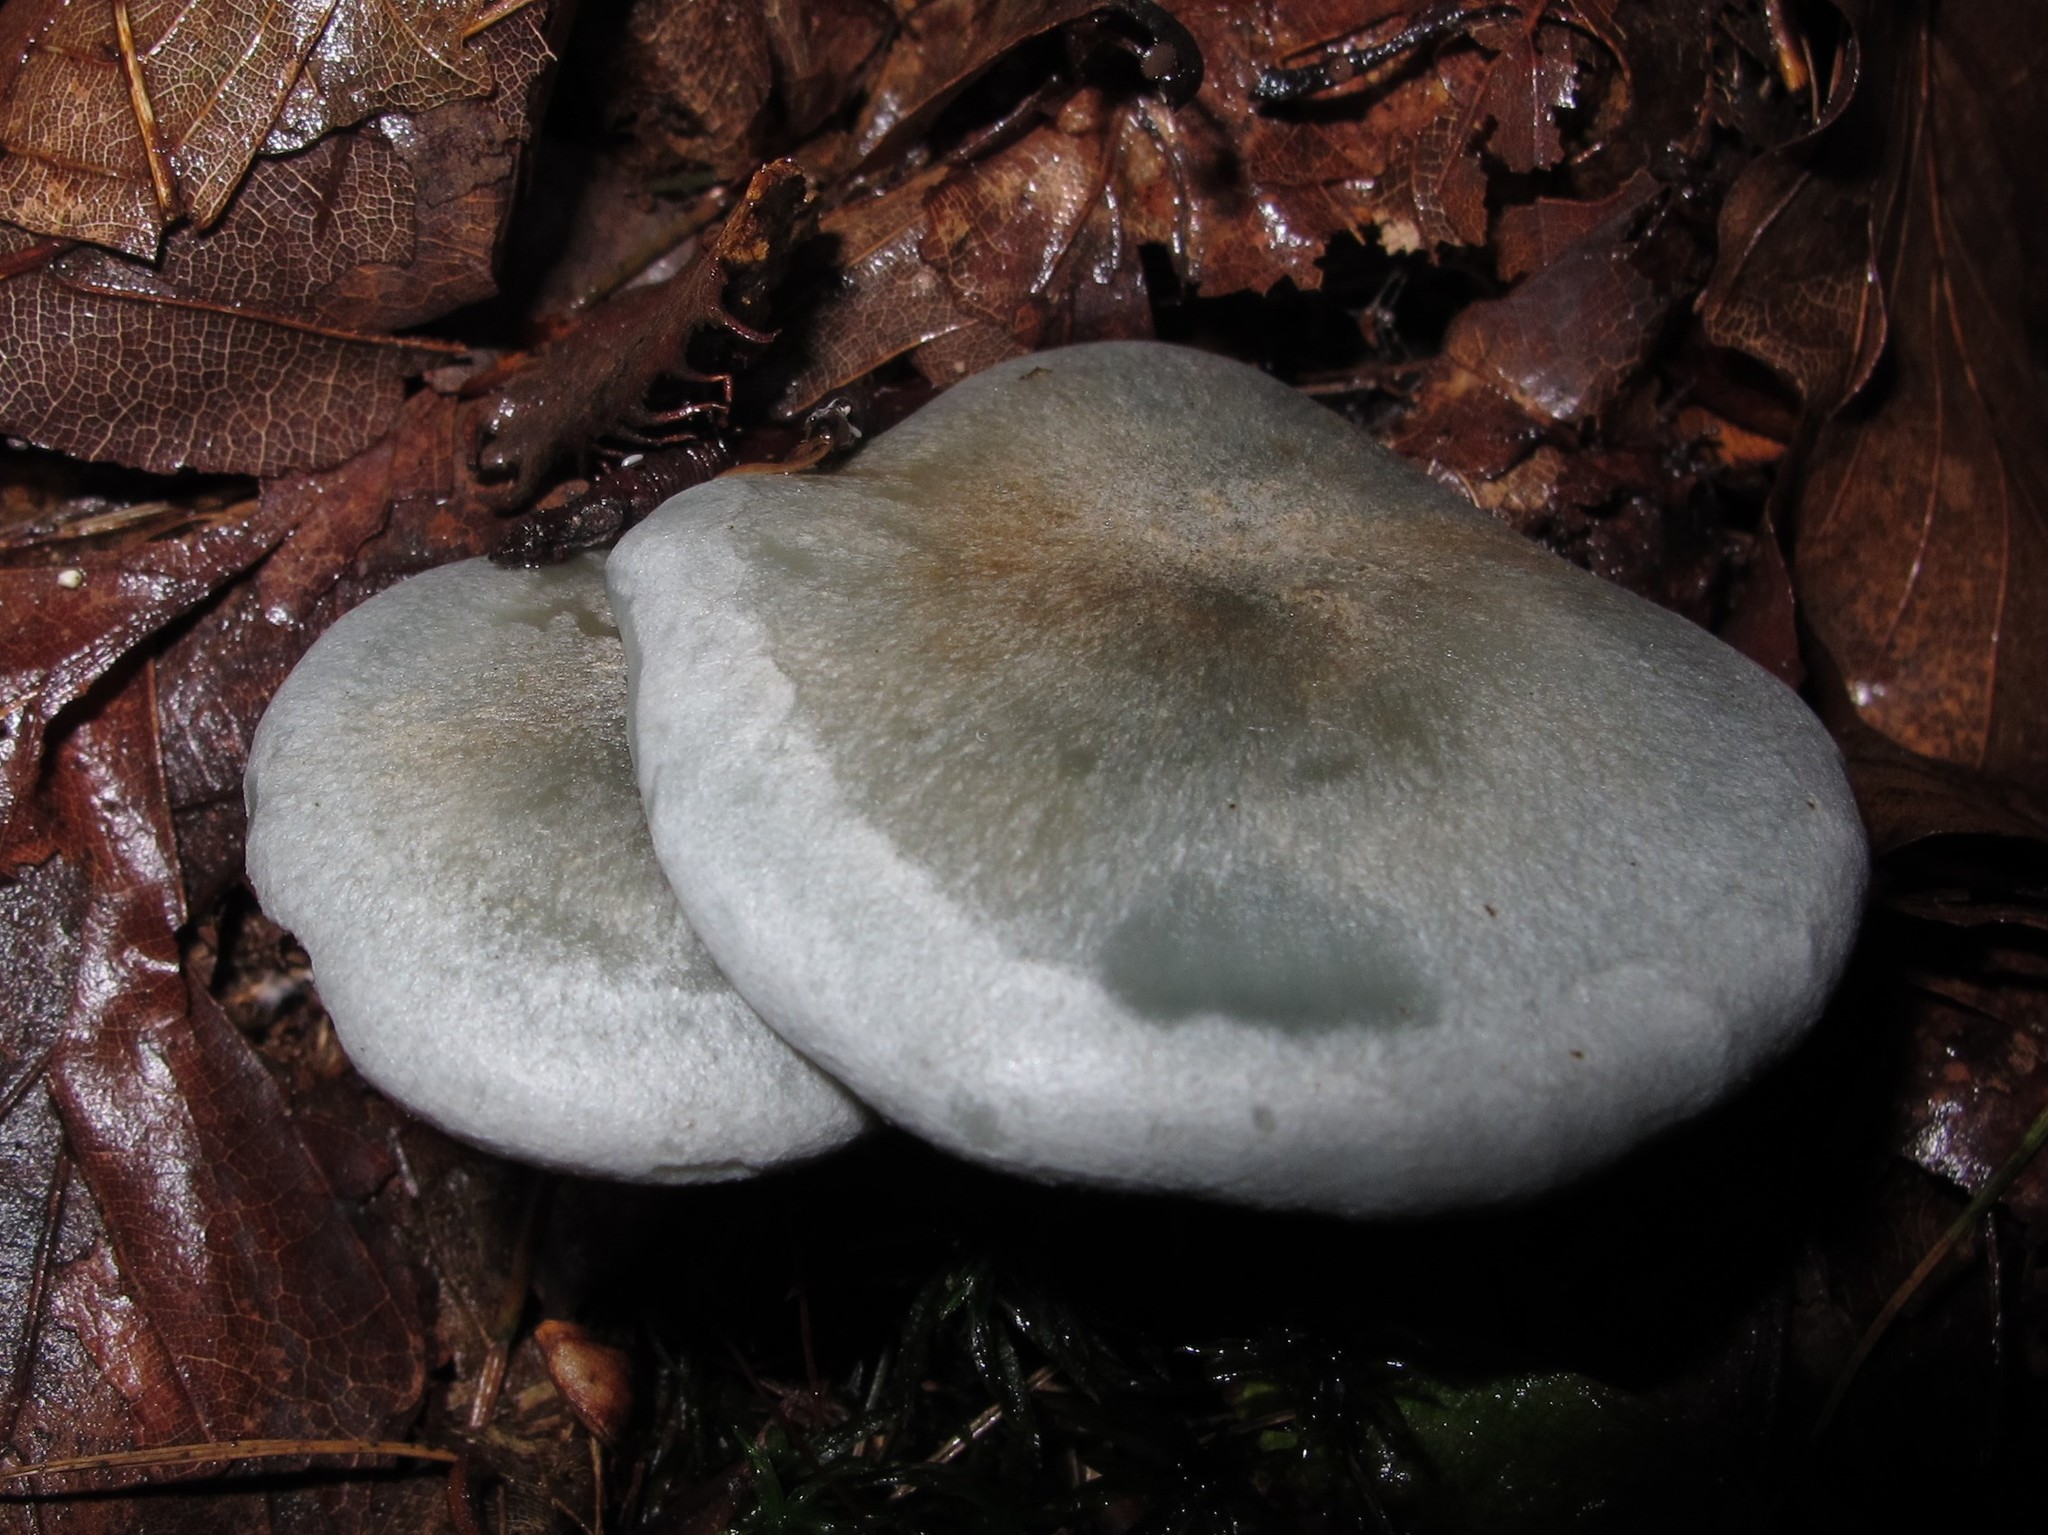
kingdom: Fungi
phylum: Basidiomycota
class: Agaricomycetes
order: Agaricales
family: Tricholomataceae
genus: Collybia
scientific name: Collybia
